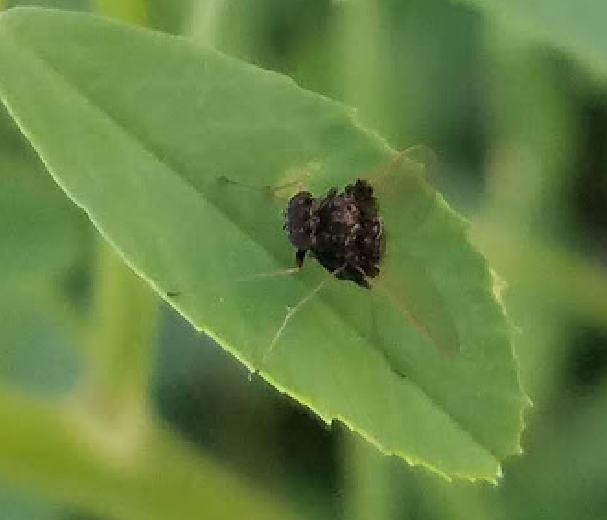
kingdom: Animalia
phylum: Arthropoda
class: Insecta
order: Diptera
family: Rhagionidae
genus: Chrysopilus
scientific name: Chrysopilus basilaris
